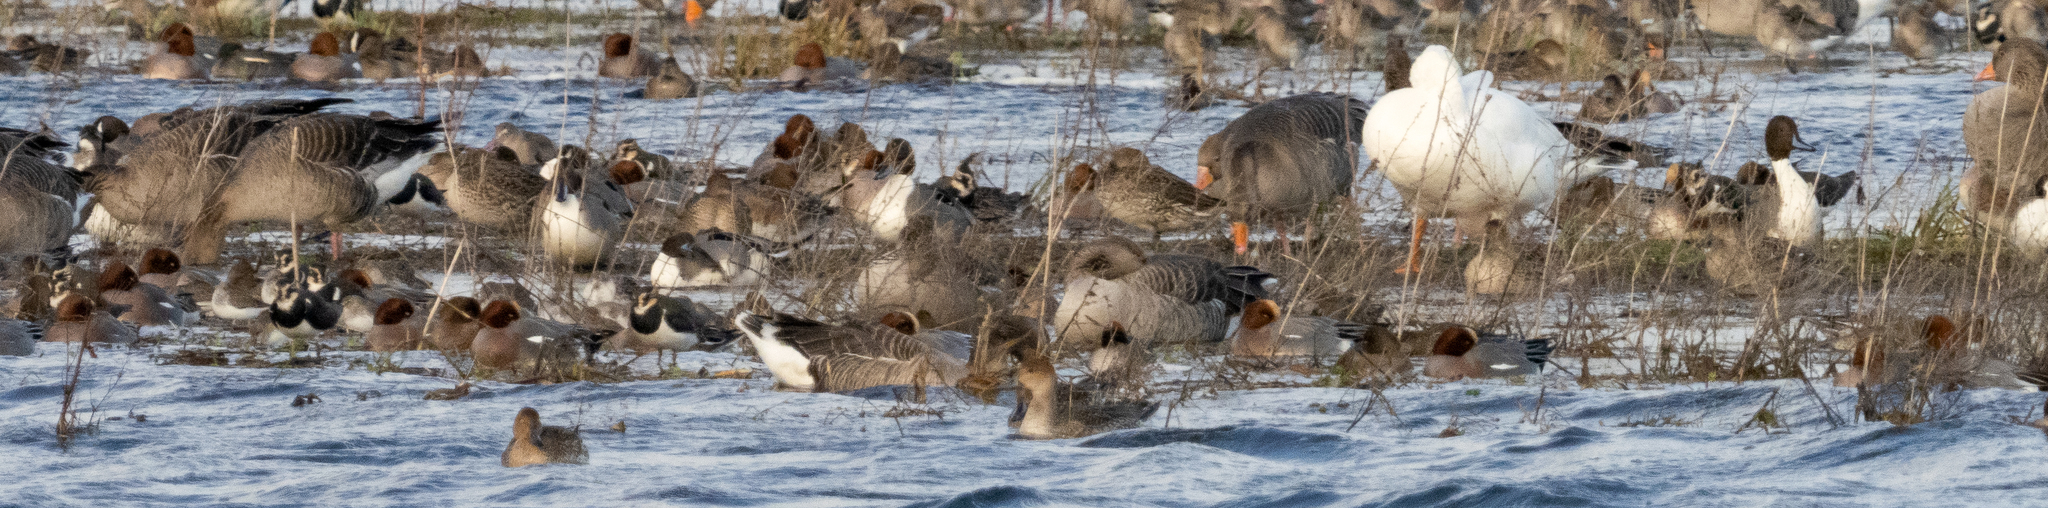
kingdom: Animalia
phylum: Chordata
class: Aves
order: Anseriformes
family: Anatidae
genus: Anas
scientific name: Anas acuta
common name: Northern pintail
